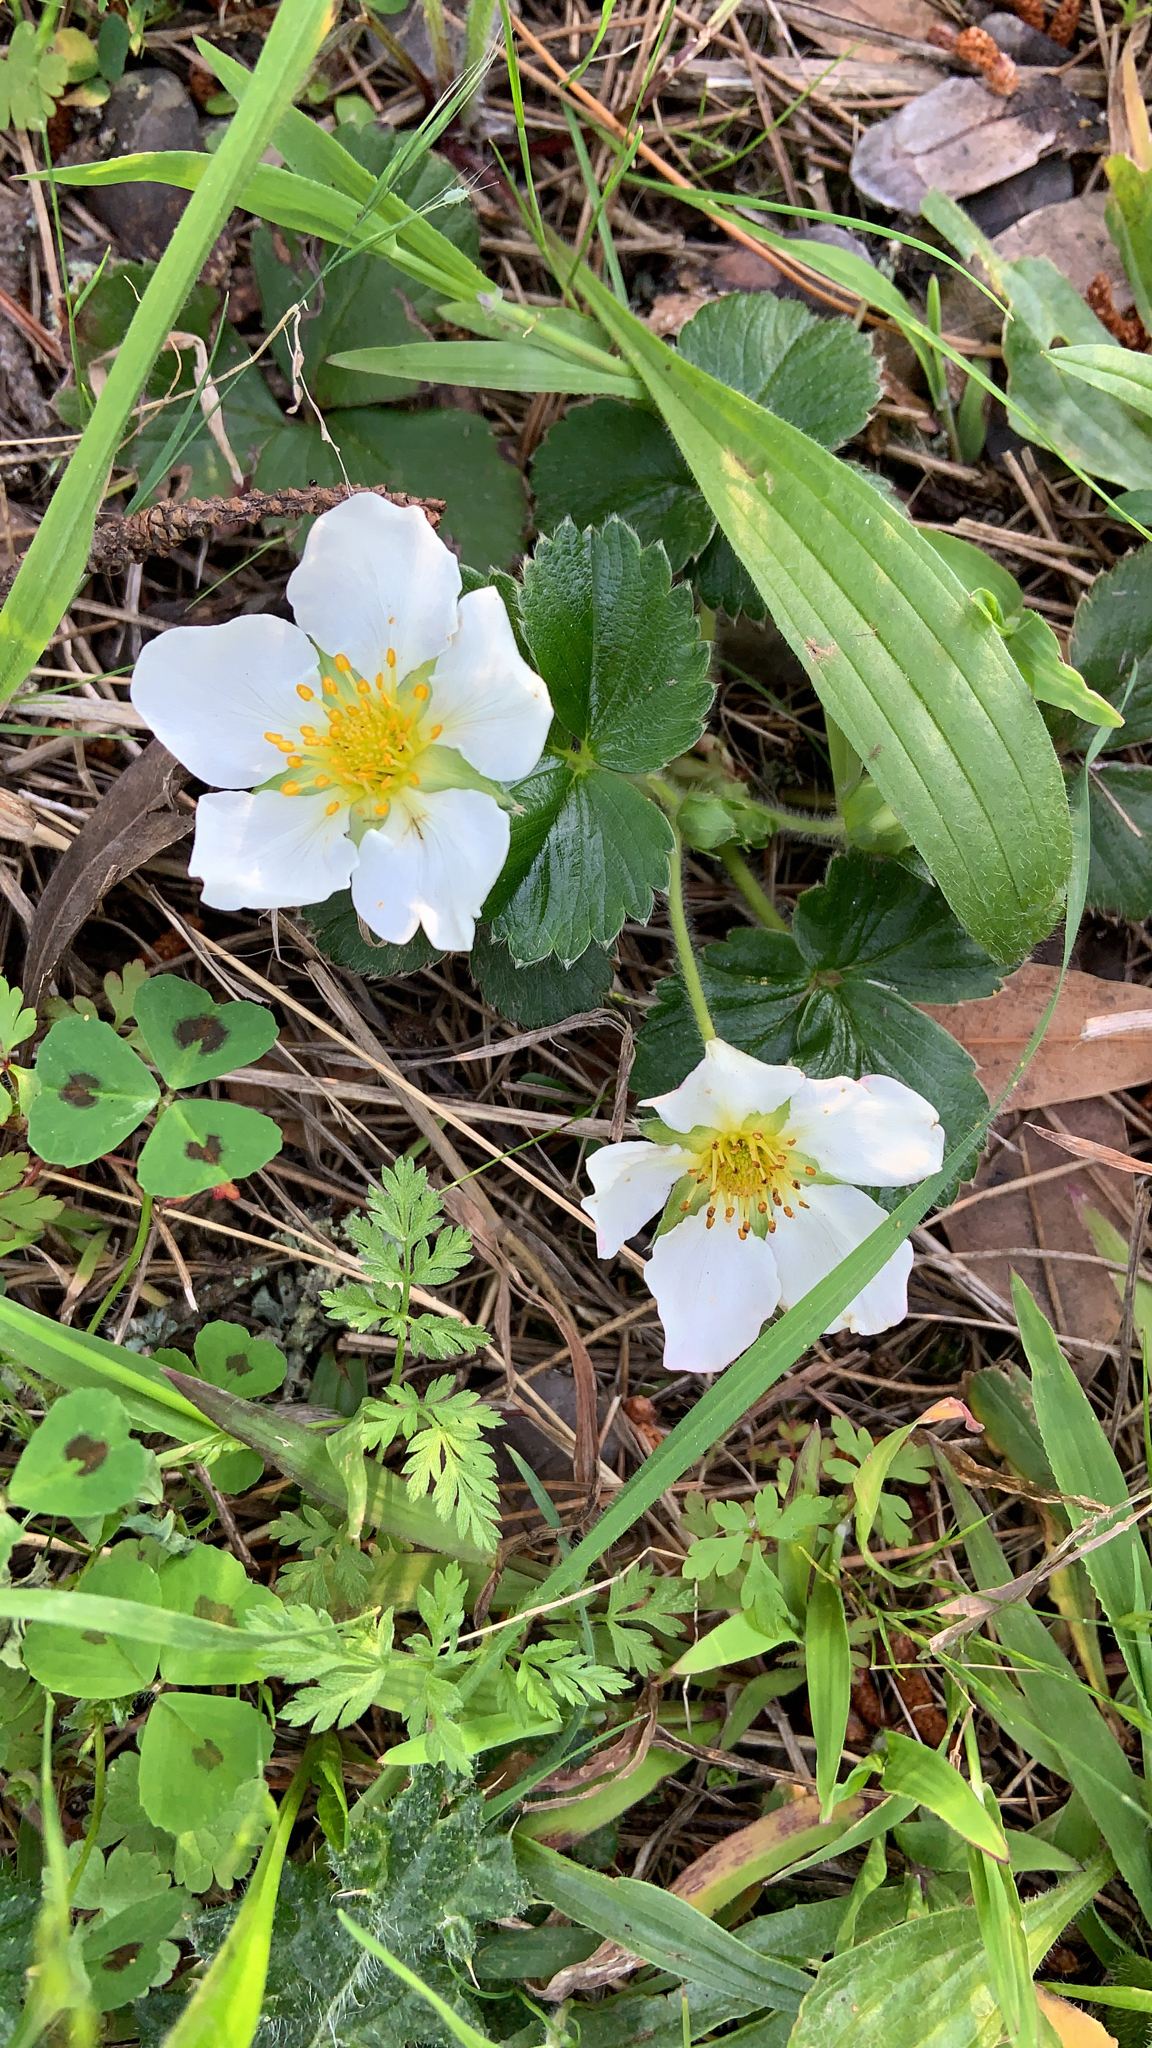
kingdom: Plantae
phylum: Tracheophyta
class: Magnoliopsida
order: Rosales
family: Rosaceae
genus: Fragaria
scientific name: Fragaria chiloensis
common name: Beach strawberry
